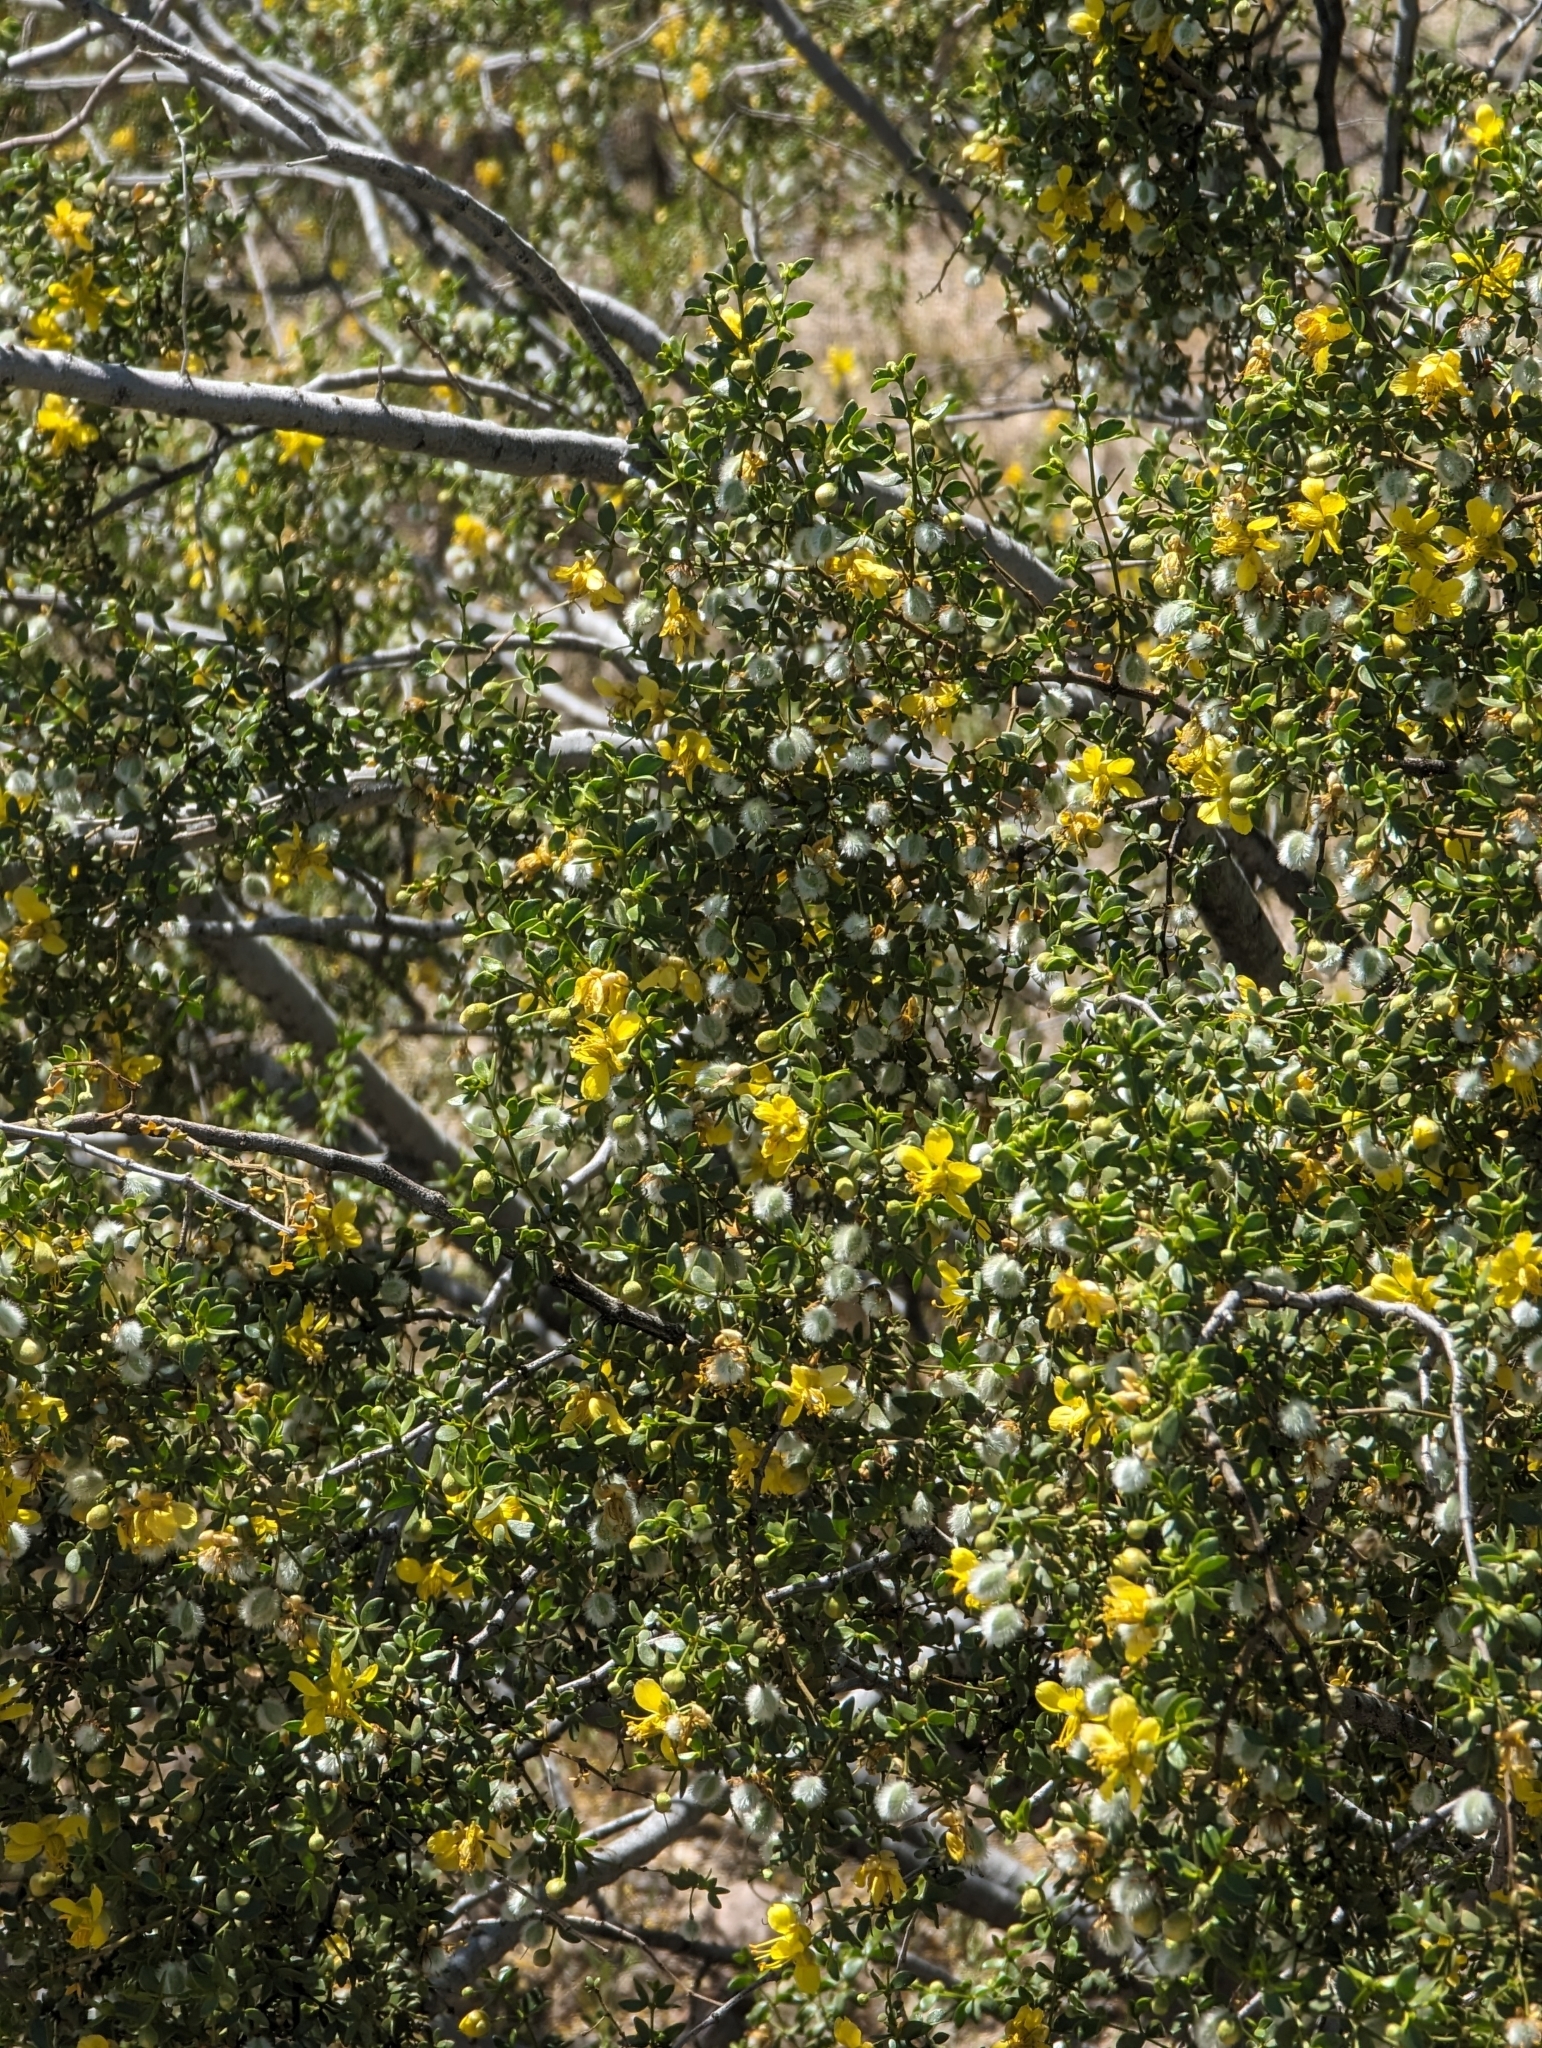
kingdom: Plantae
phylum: Tracheophyta
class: Magnoliopsida
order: Zygophyllales
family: Zygophyllaceae
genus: Larrea
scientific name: Larrea tridentata
